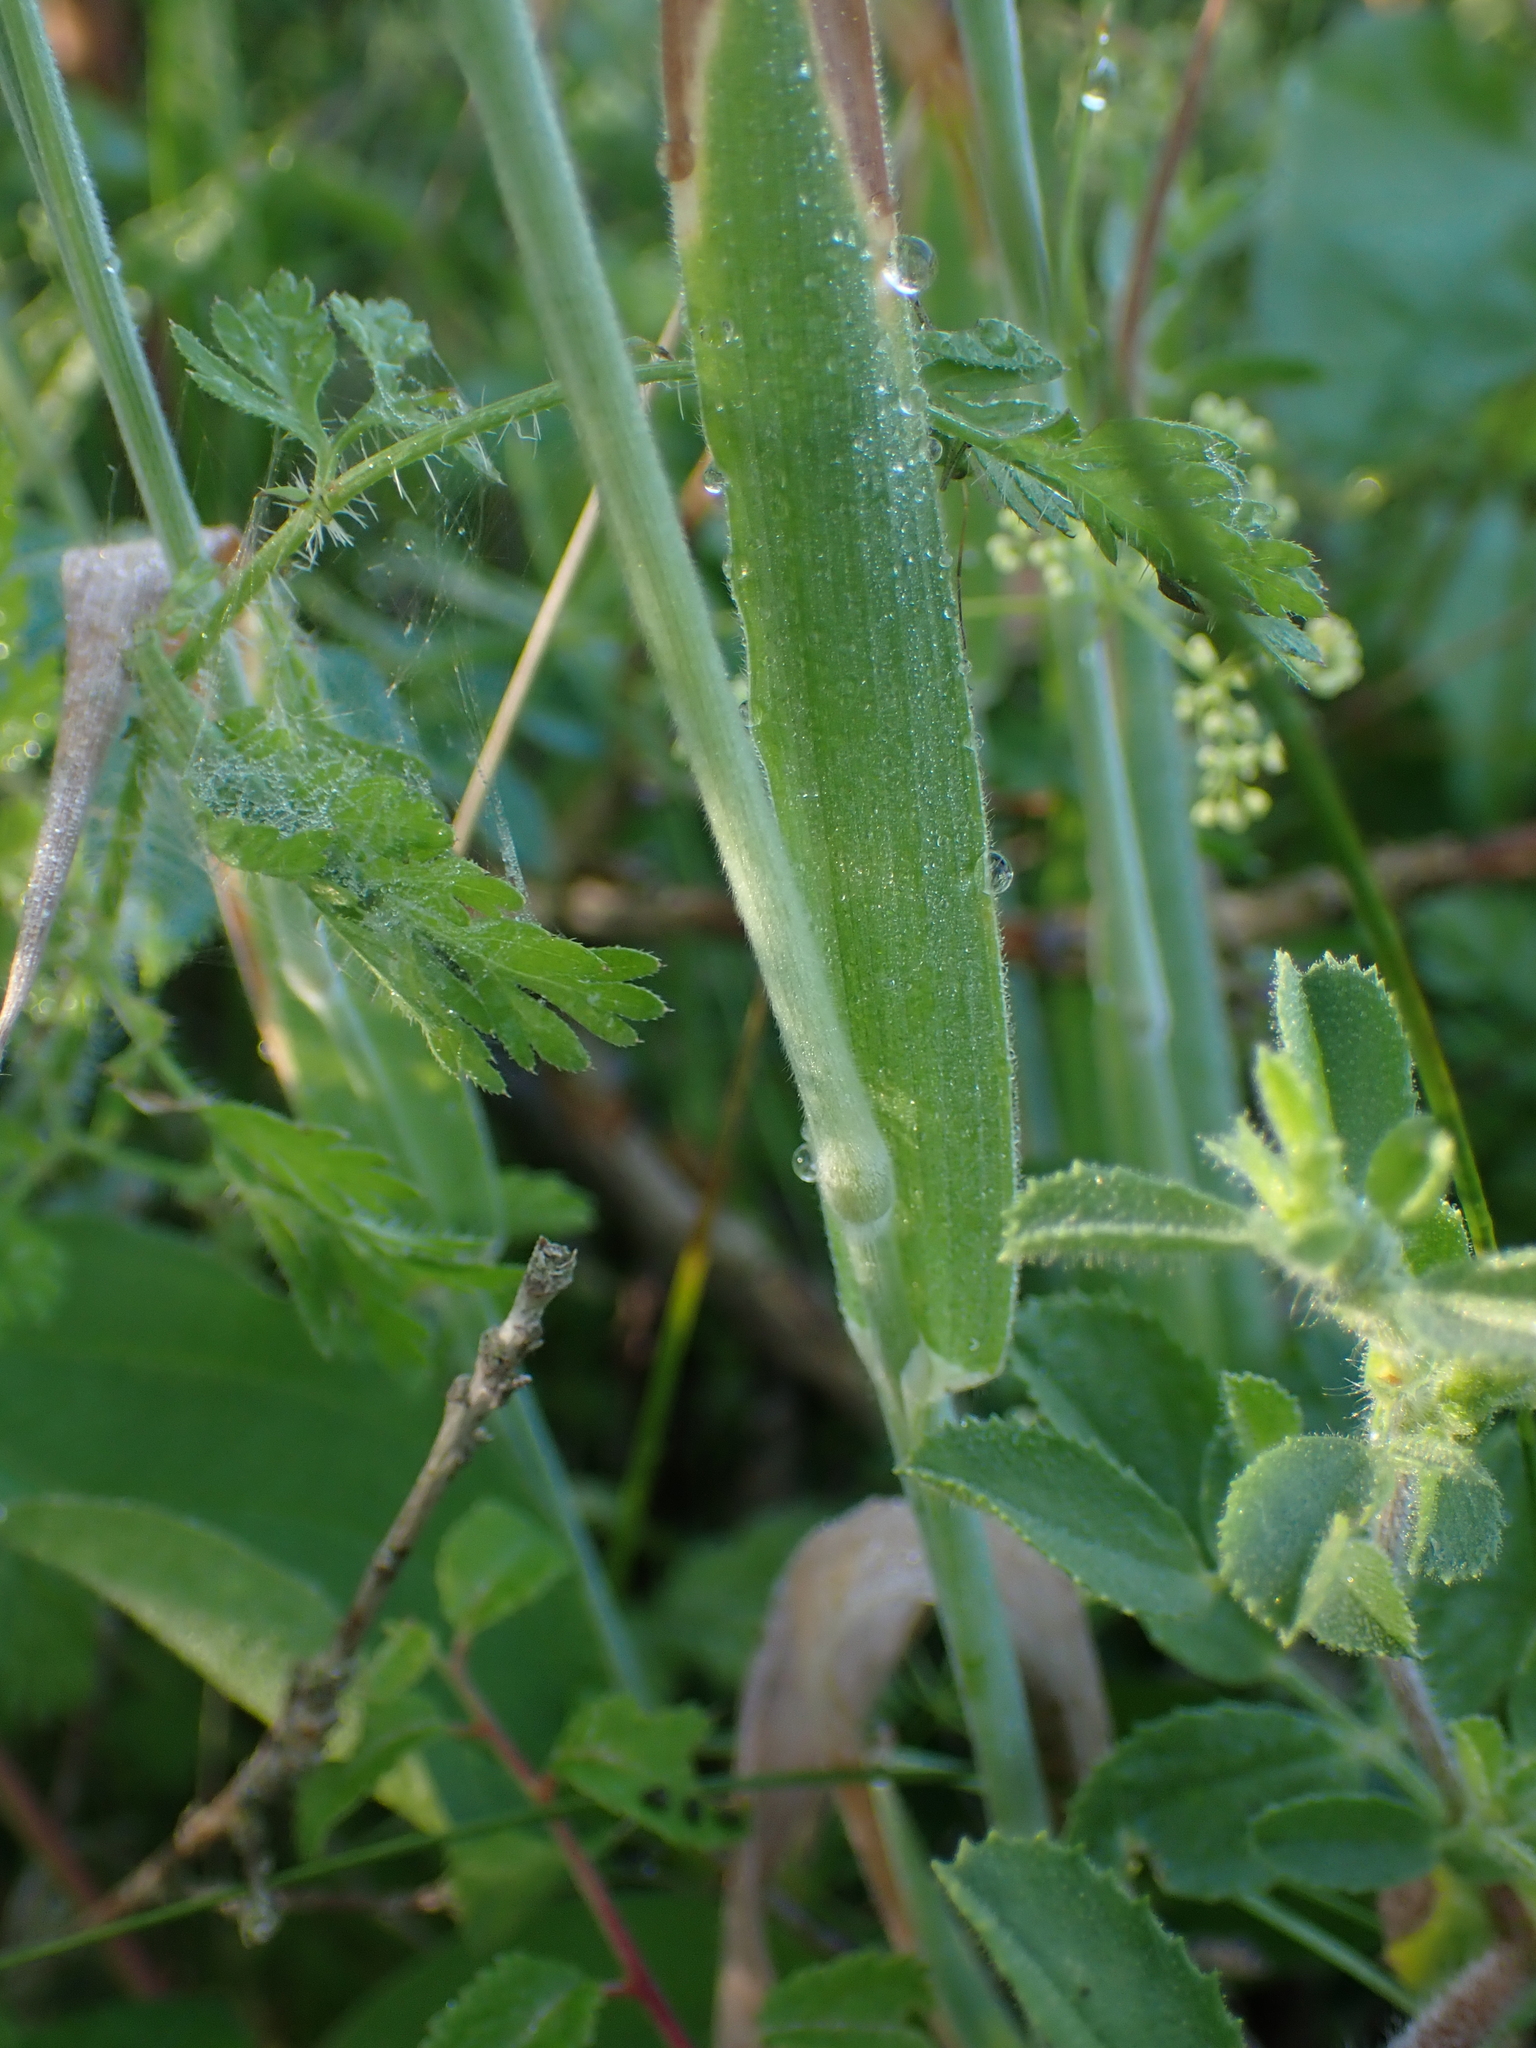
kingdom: Plantae
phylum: Tracheophyta
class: Liliopsida
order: Poales
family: Poaceae
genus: Holcus
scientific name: Holcus lanatus
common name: Yorkshire-fog
